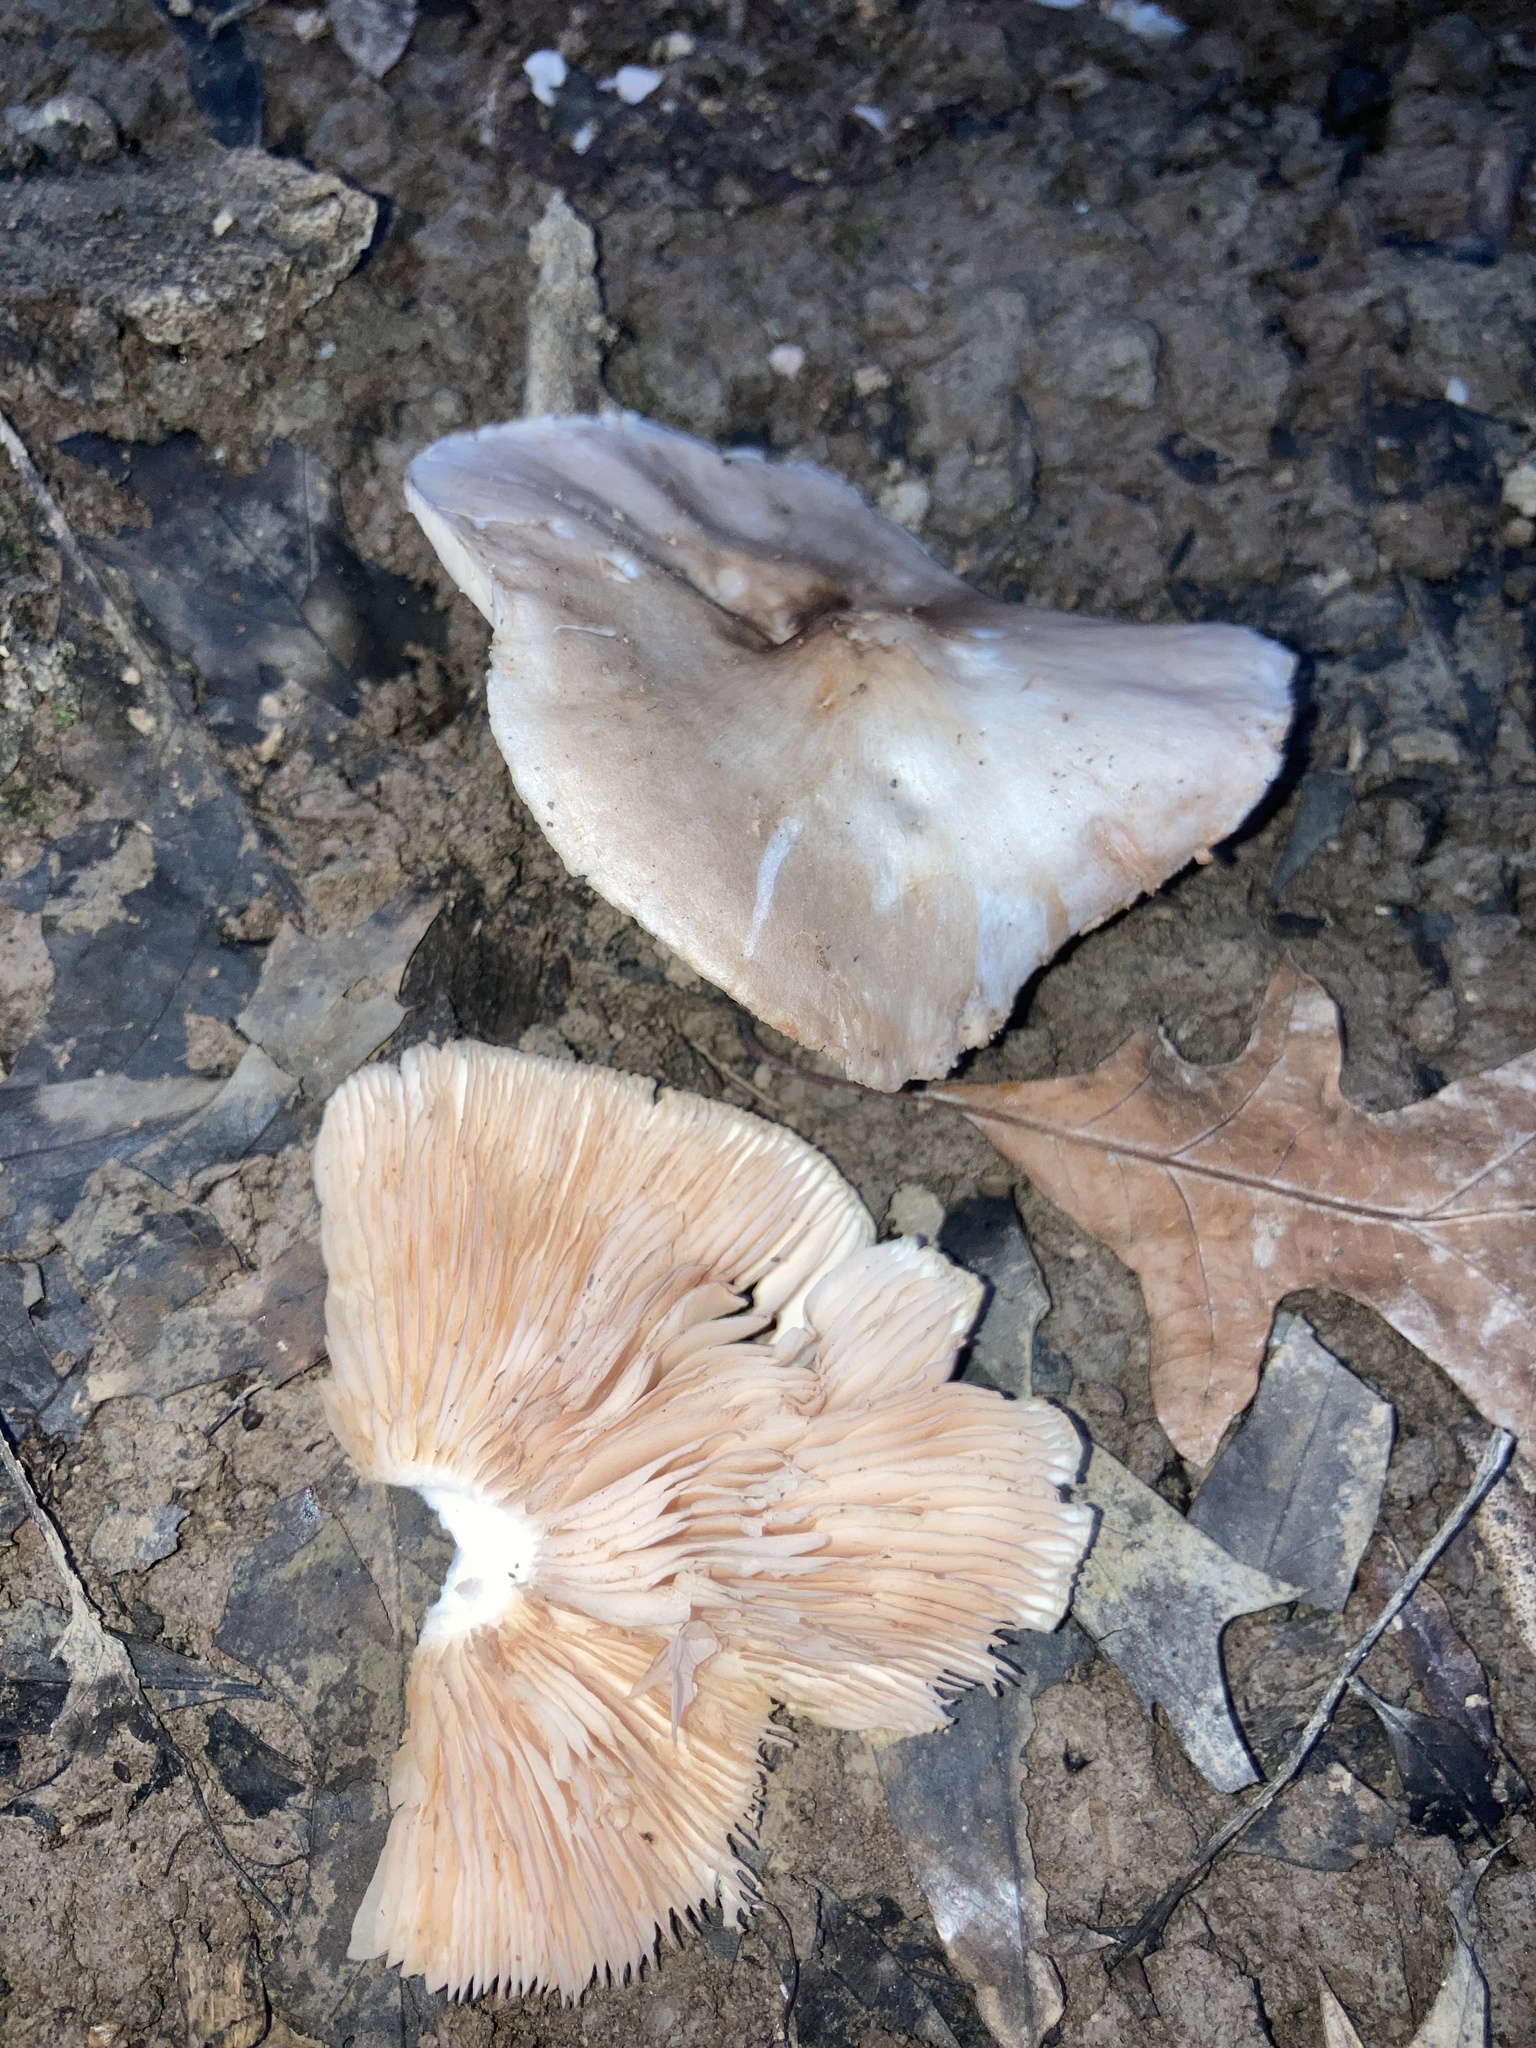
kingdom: Fungi
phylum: Basidiomycota
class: Agaricomycetes
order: Agaricales
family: Pluteaceae
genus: Pluteus
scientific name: Pluteus cervinus
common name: Deer shield
